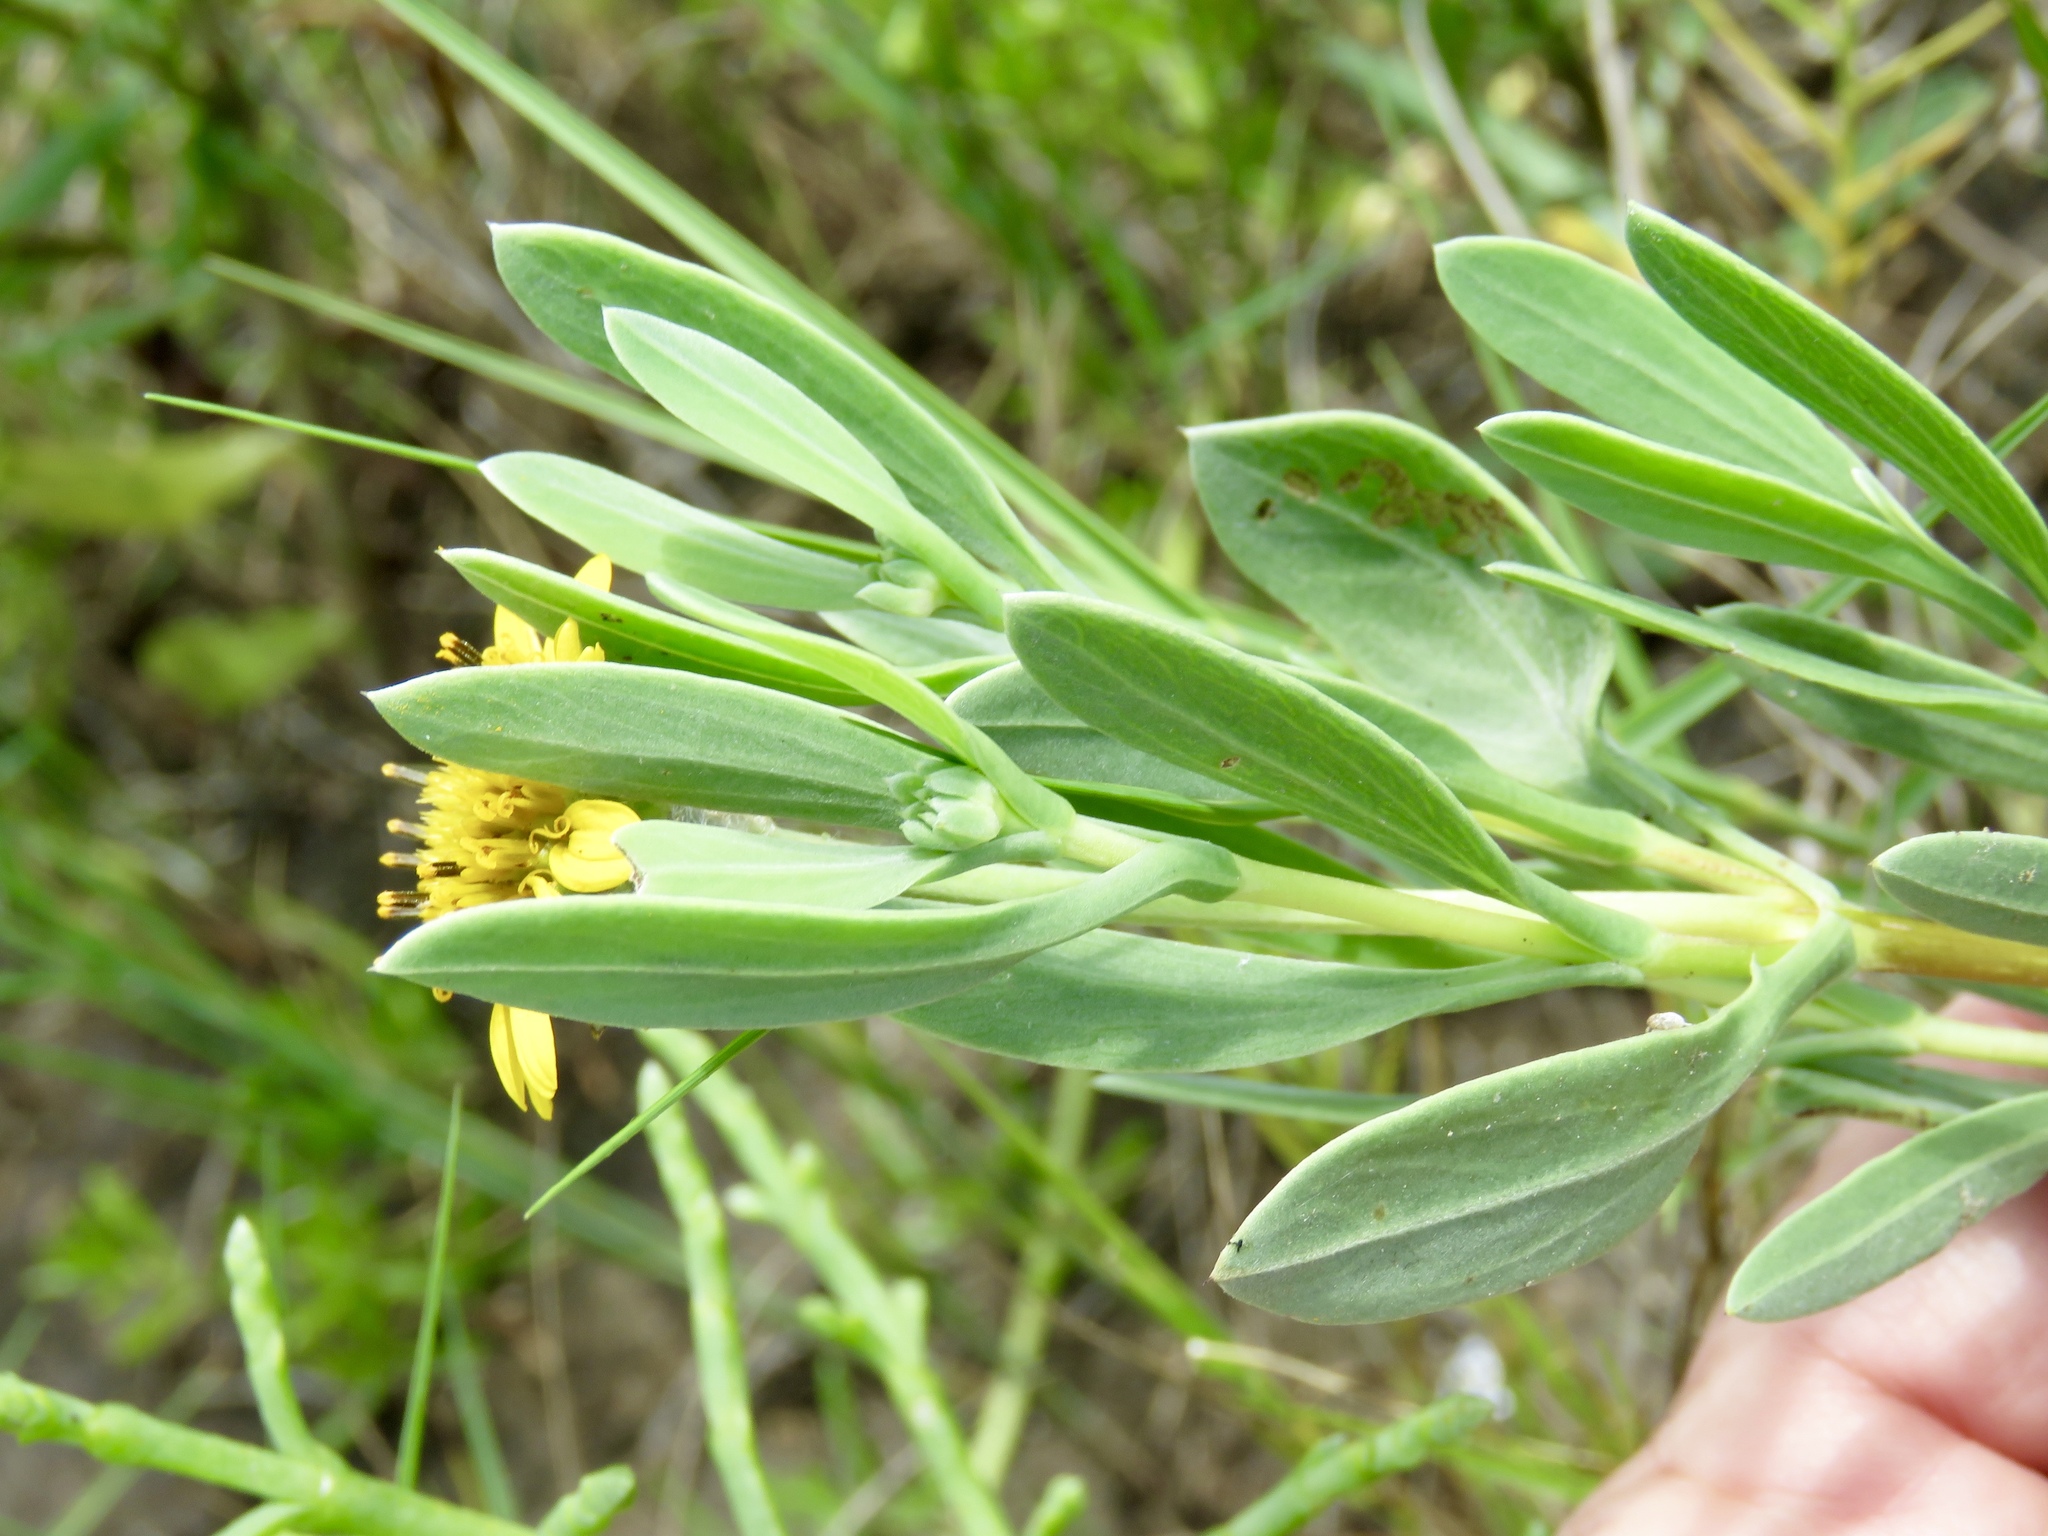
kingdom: Plantae
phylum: Tracheophyta
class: Magnoliopsida
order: Asterales
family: Asteraceae
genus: Borrichia
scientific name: Borrichia frutescens
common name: Sea oxeye
